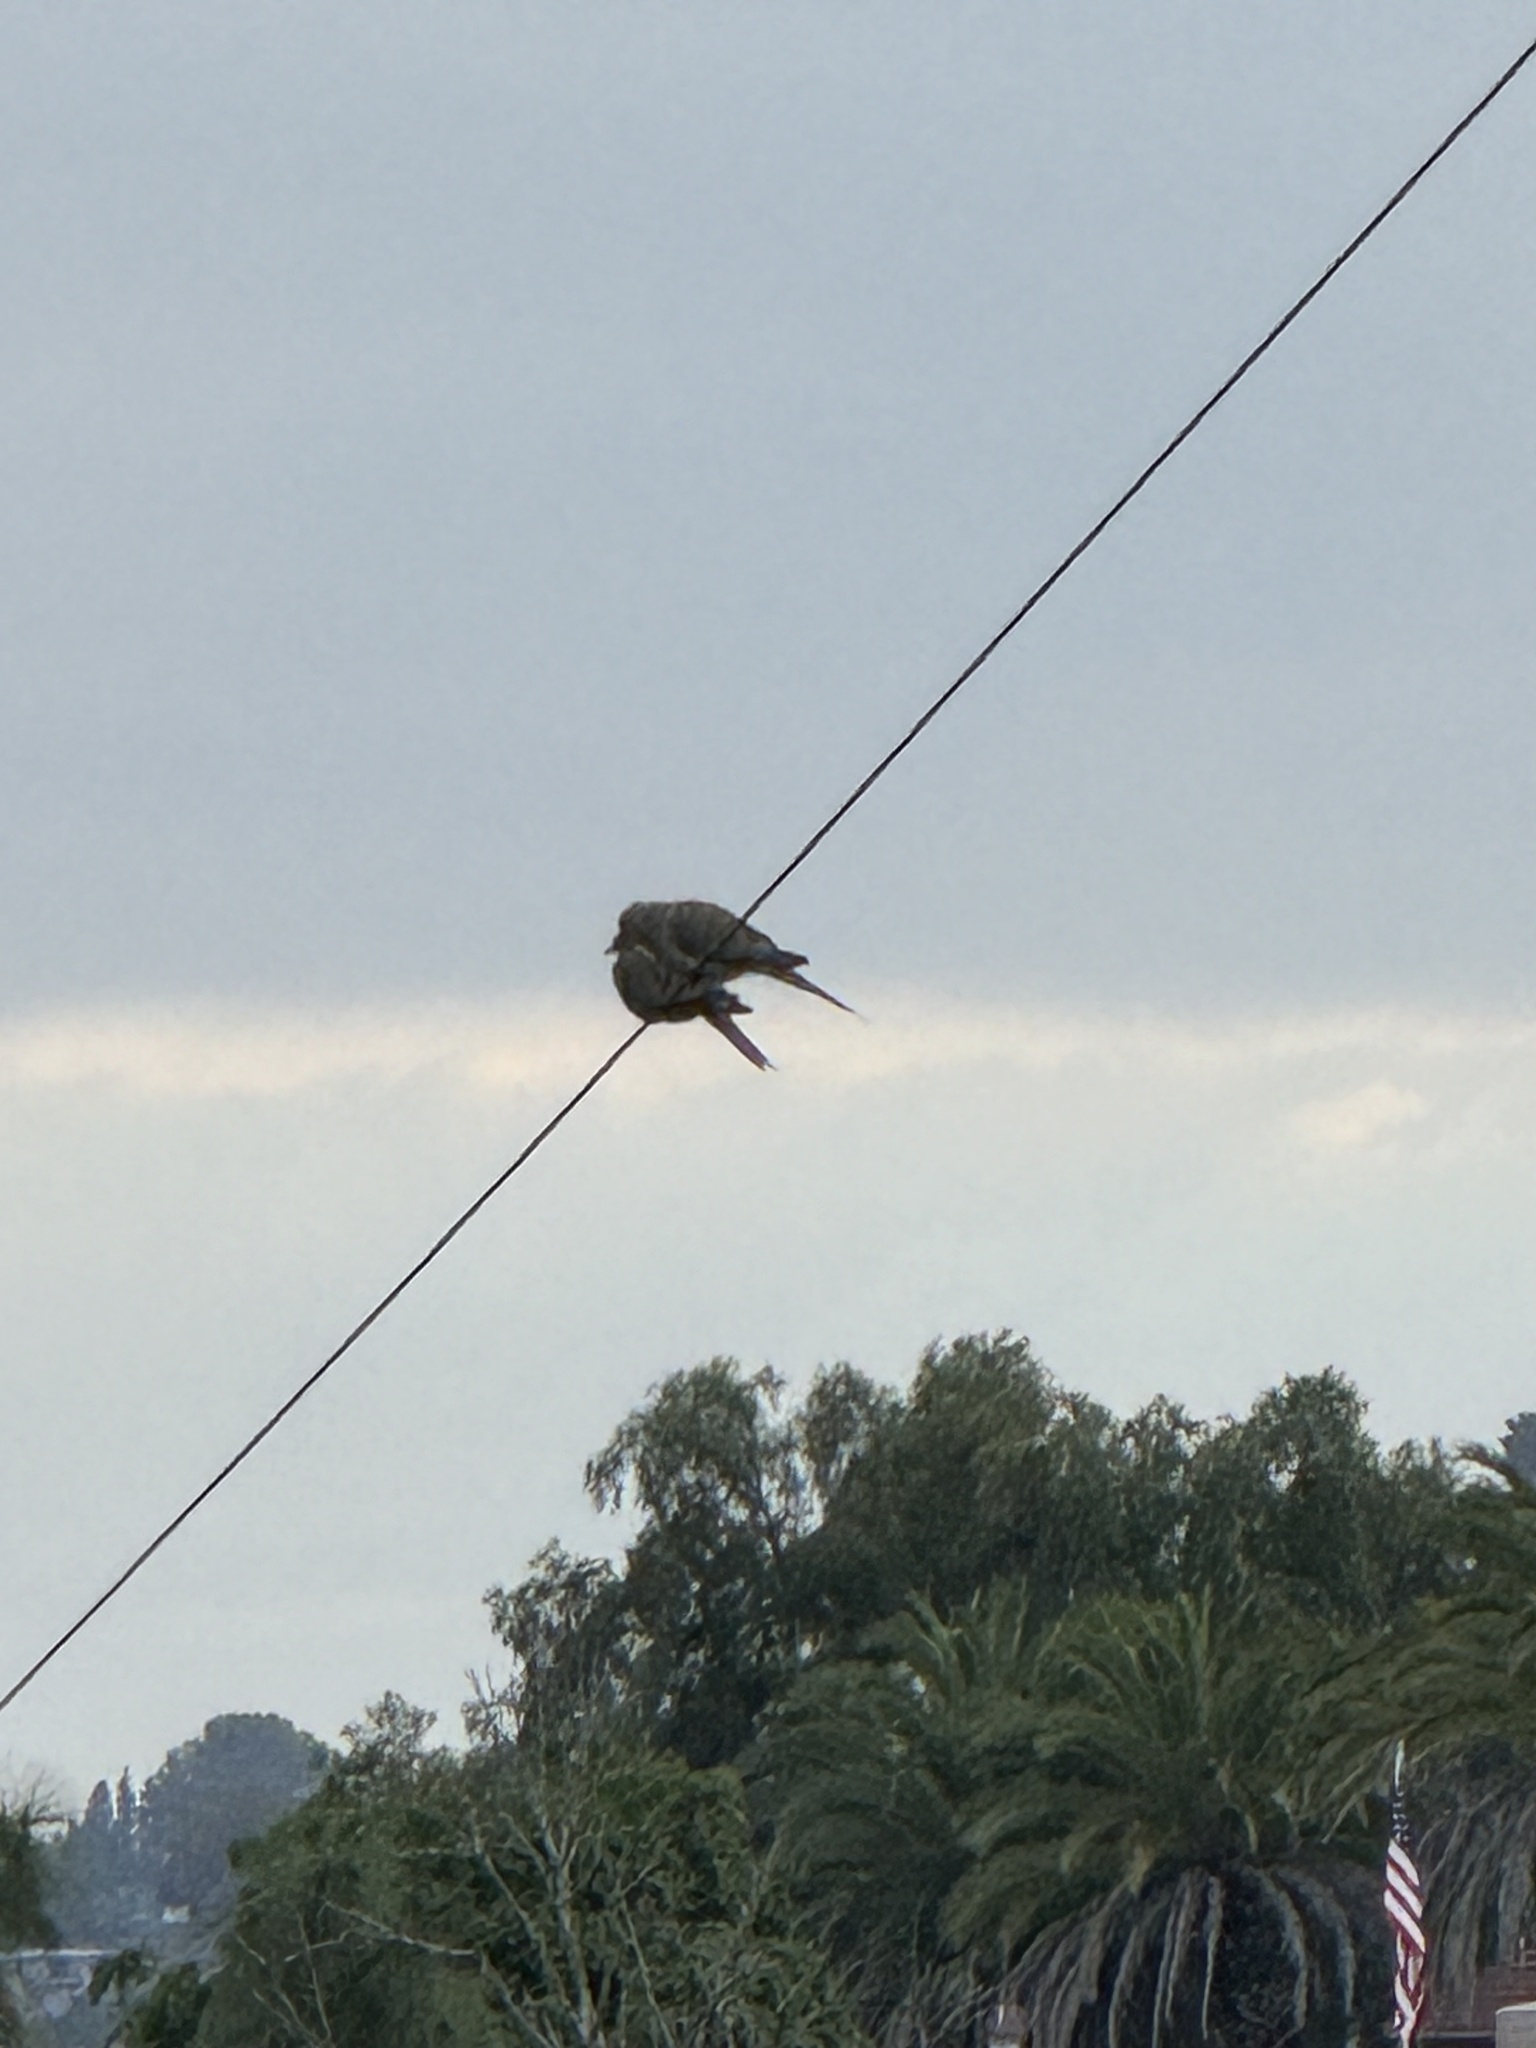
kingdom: Animalia
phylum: Chordata
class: Aves
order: Columbiformes
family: Columbidae
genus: Zenaida
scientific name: Zenaida macroura
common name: Mourning dove
